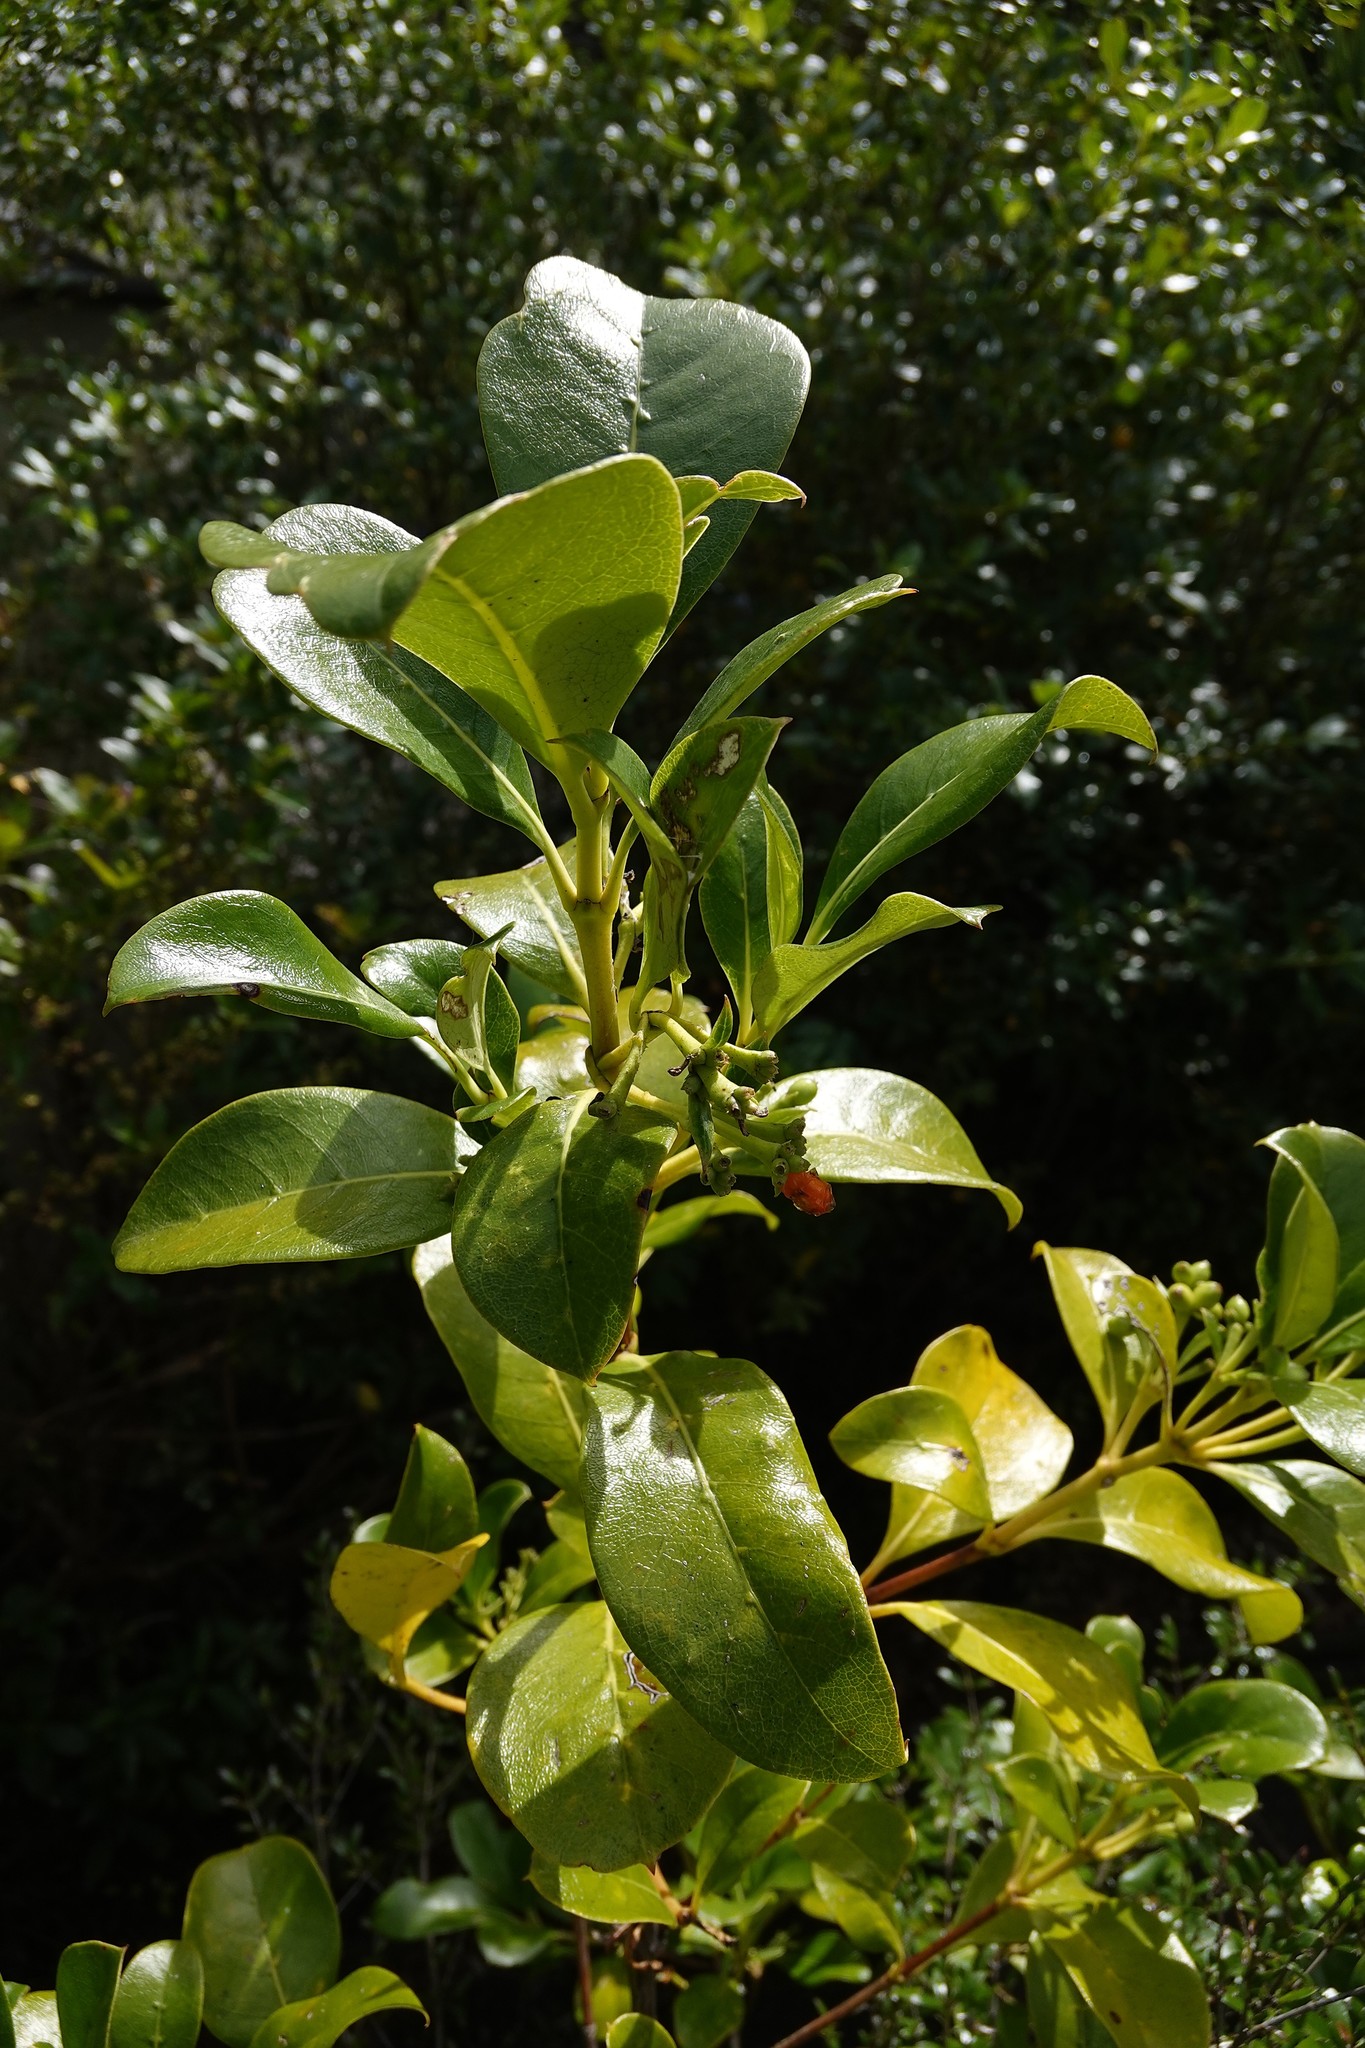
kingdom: Plantae
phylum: Tracheophyta
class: Magnoliopsida
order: Gentianales
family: Rubiaceae
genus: Coprosma
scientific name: Coprosma lucida
